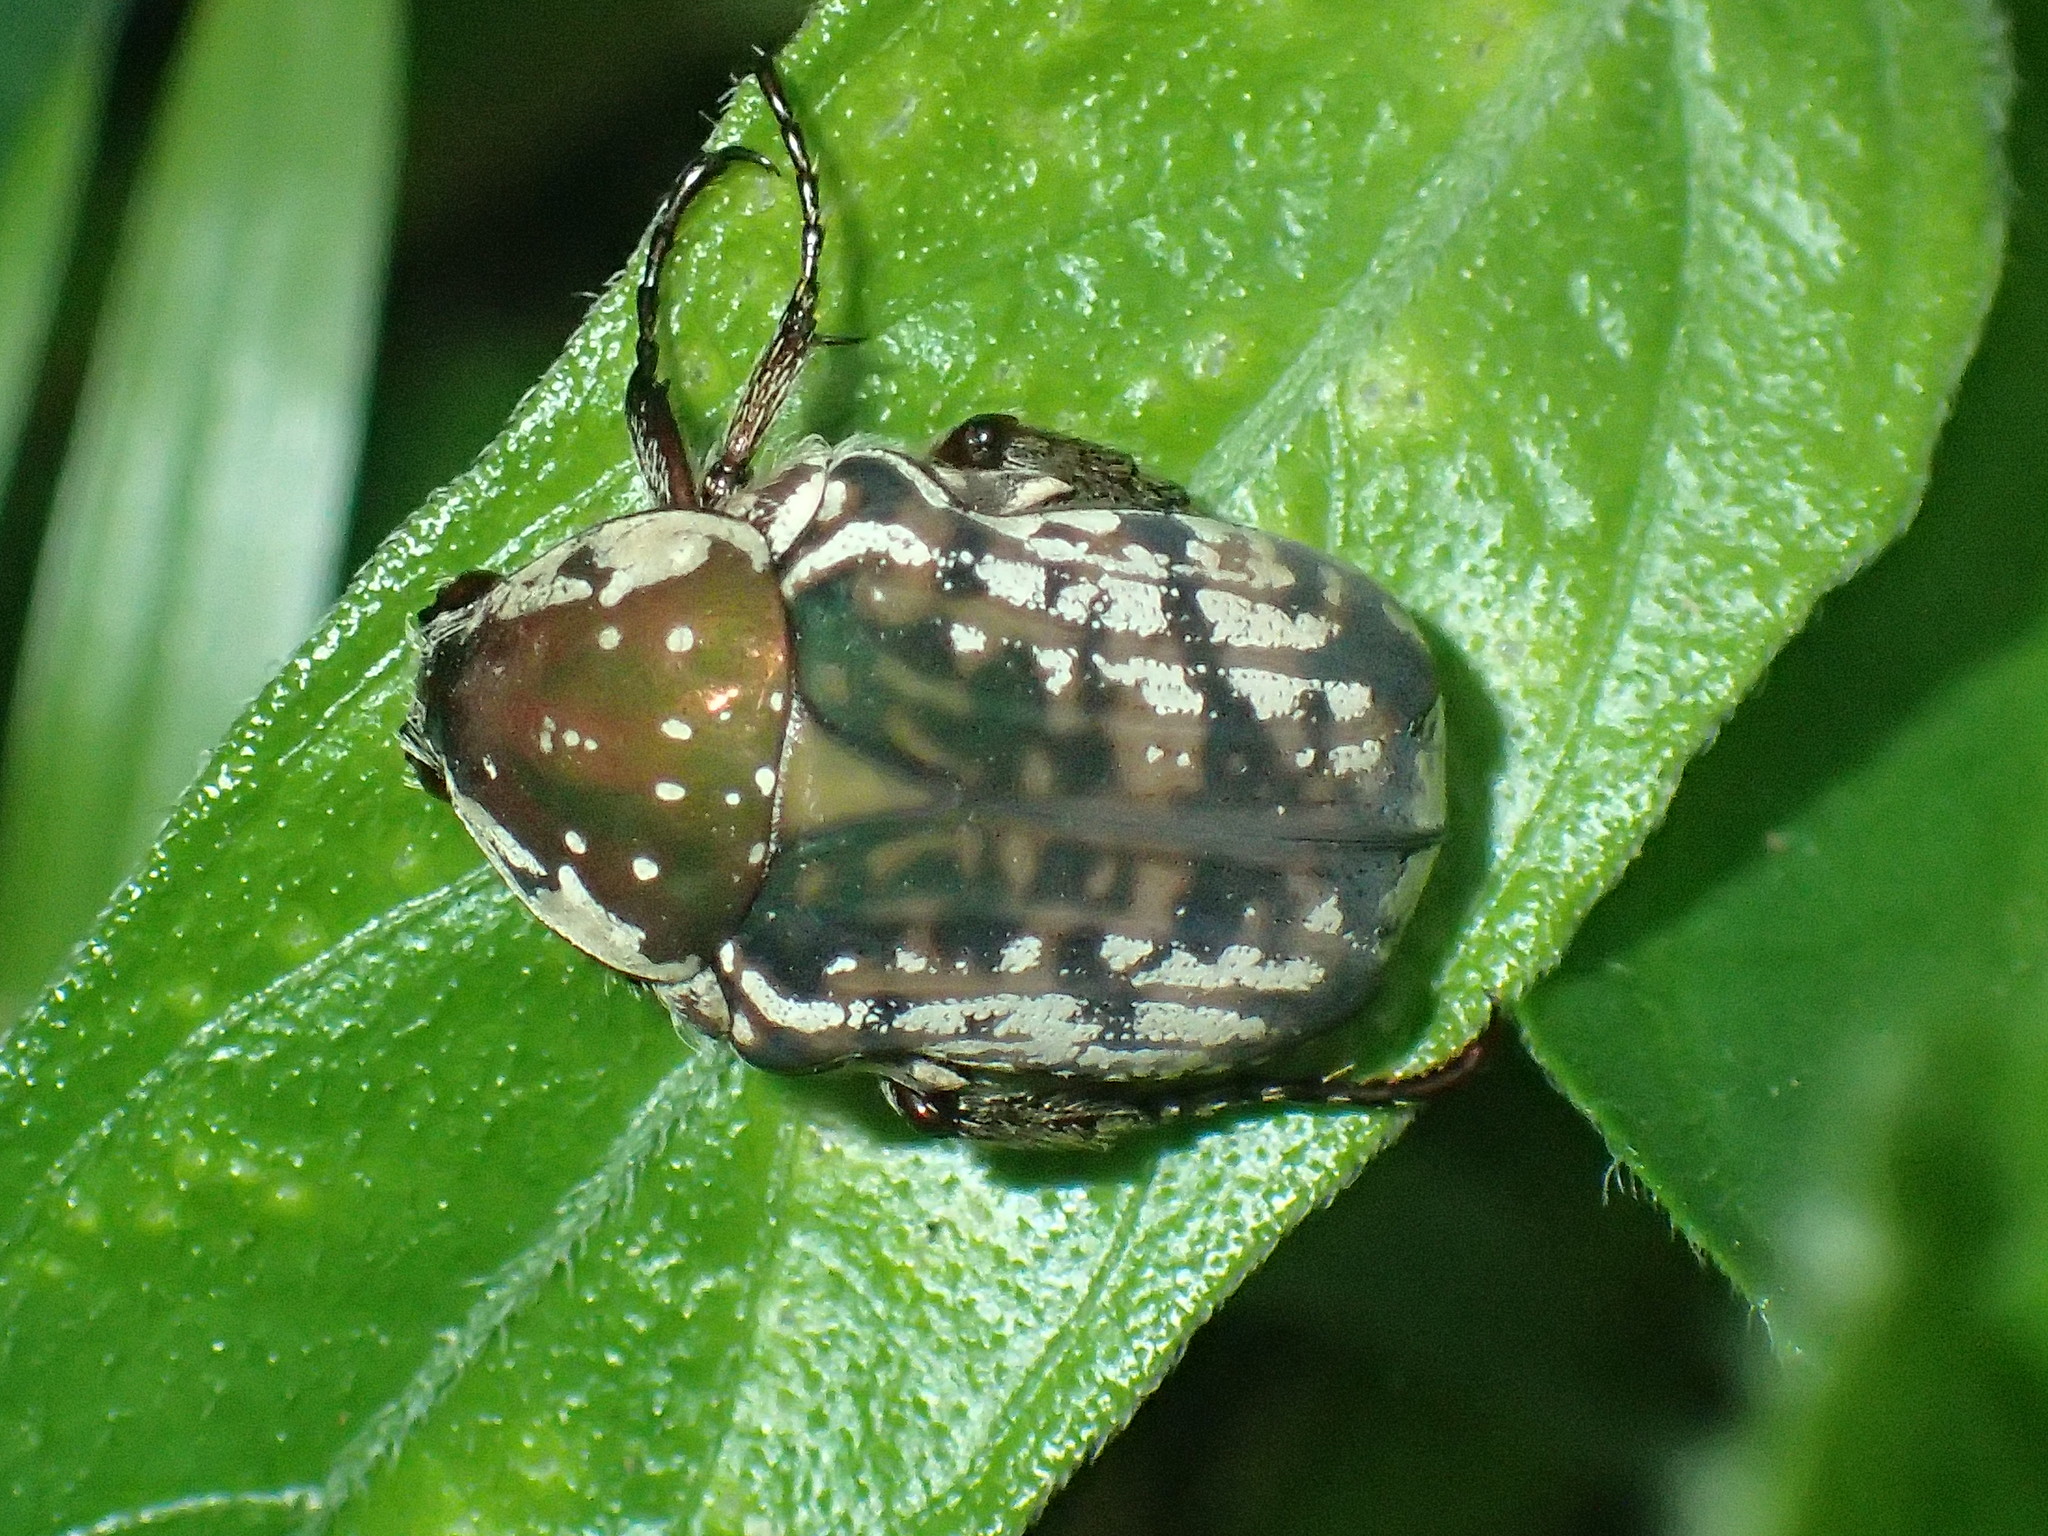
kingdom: Animalia
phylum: Arthropoda
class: Insecta
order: Coleoptera
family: Scarabaeidae
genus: Elaphinis
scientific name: Elaphinis irrorata
